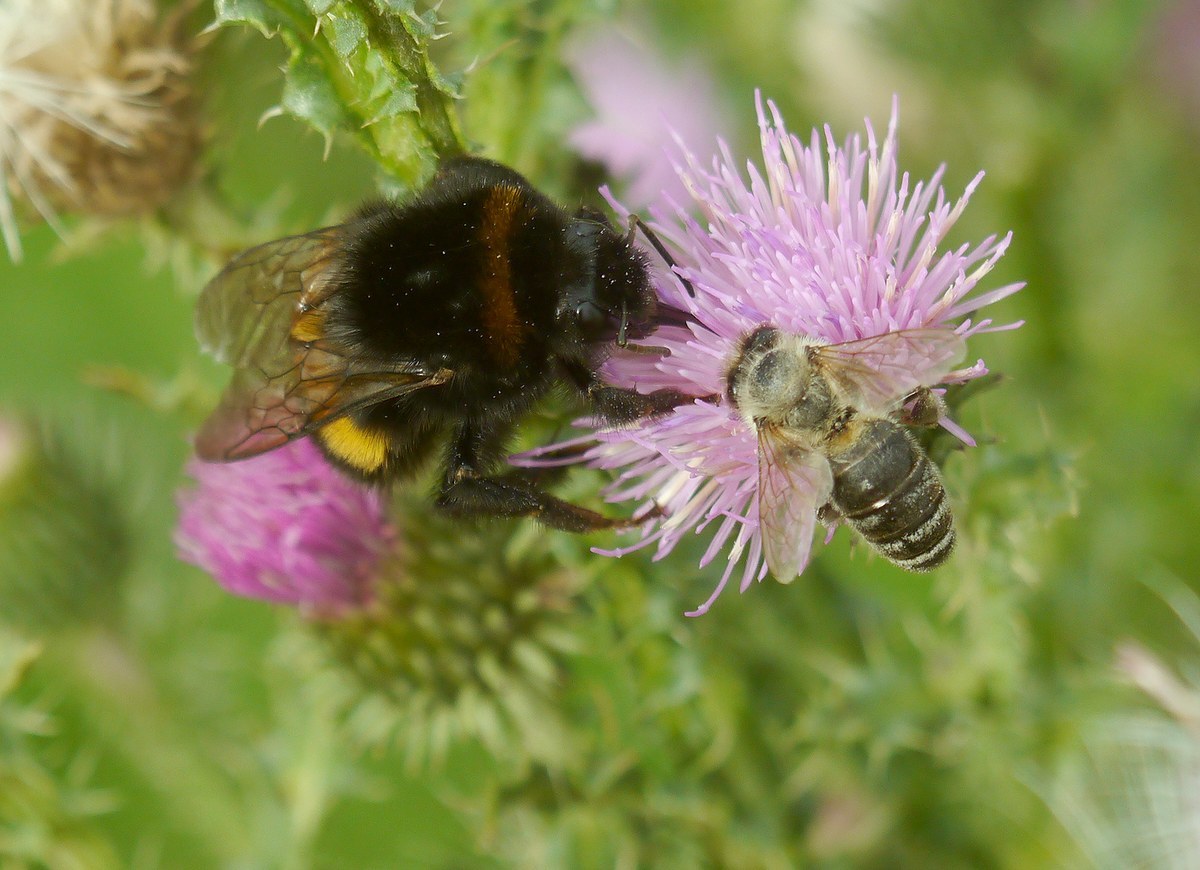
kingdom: Animalia
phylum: Arthropoda
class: Insecta
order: Hymenoptera
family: Apidae
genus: Bombus
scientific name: Bombus terrestris
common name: Buff-tailed bumblebee
